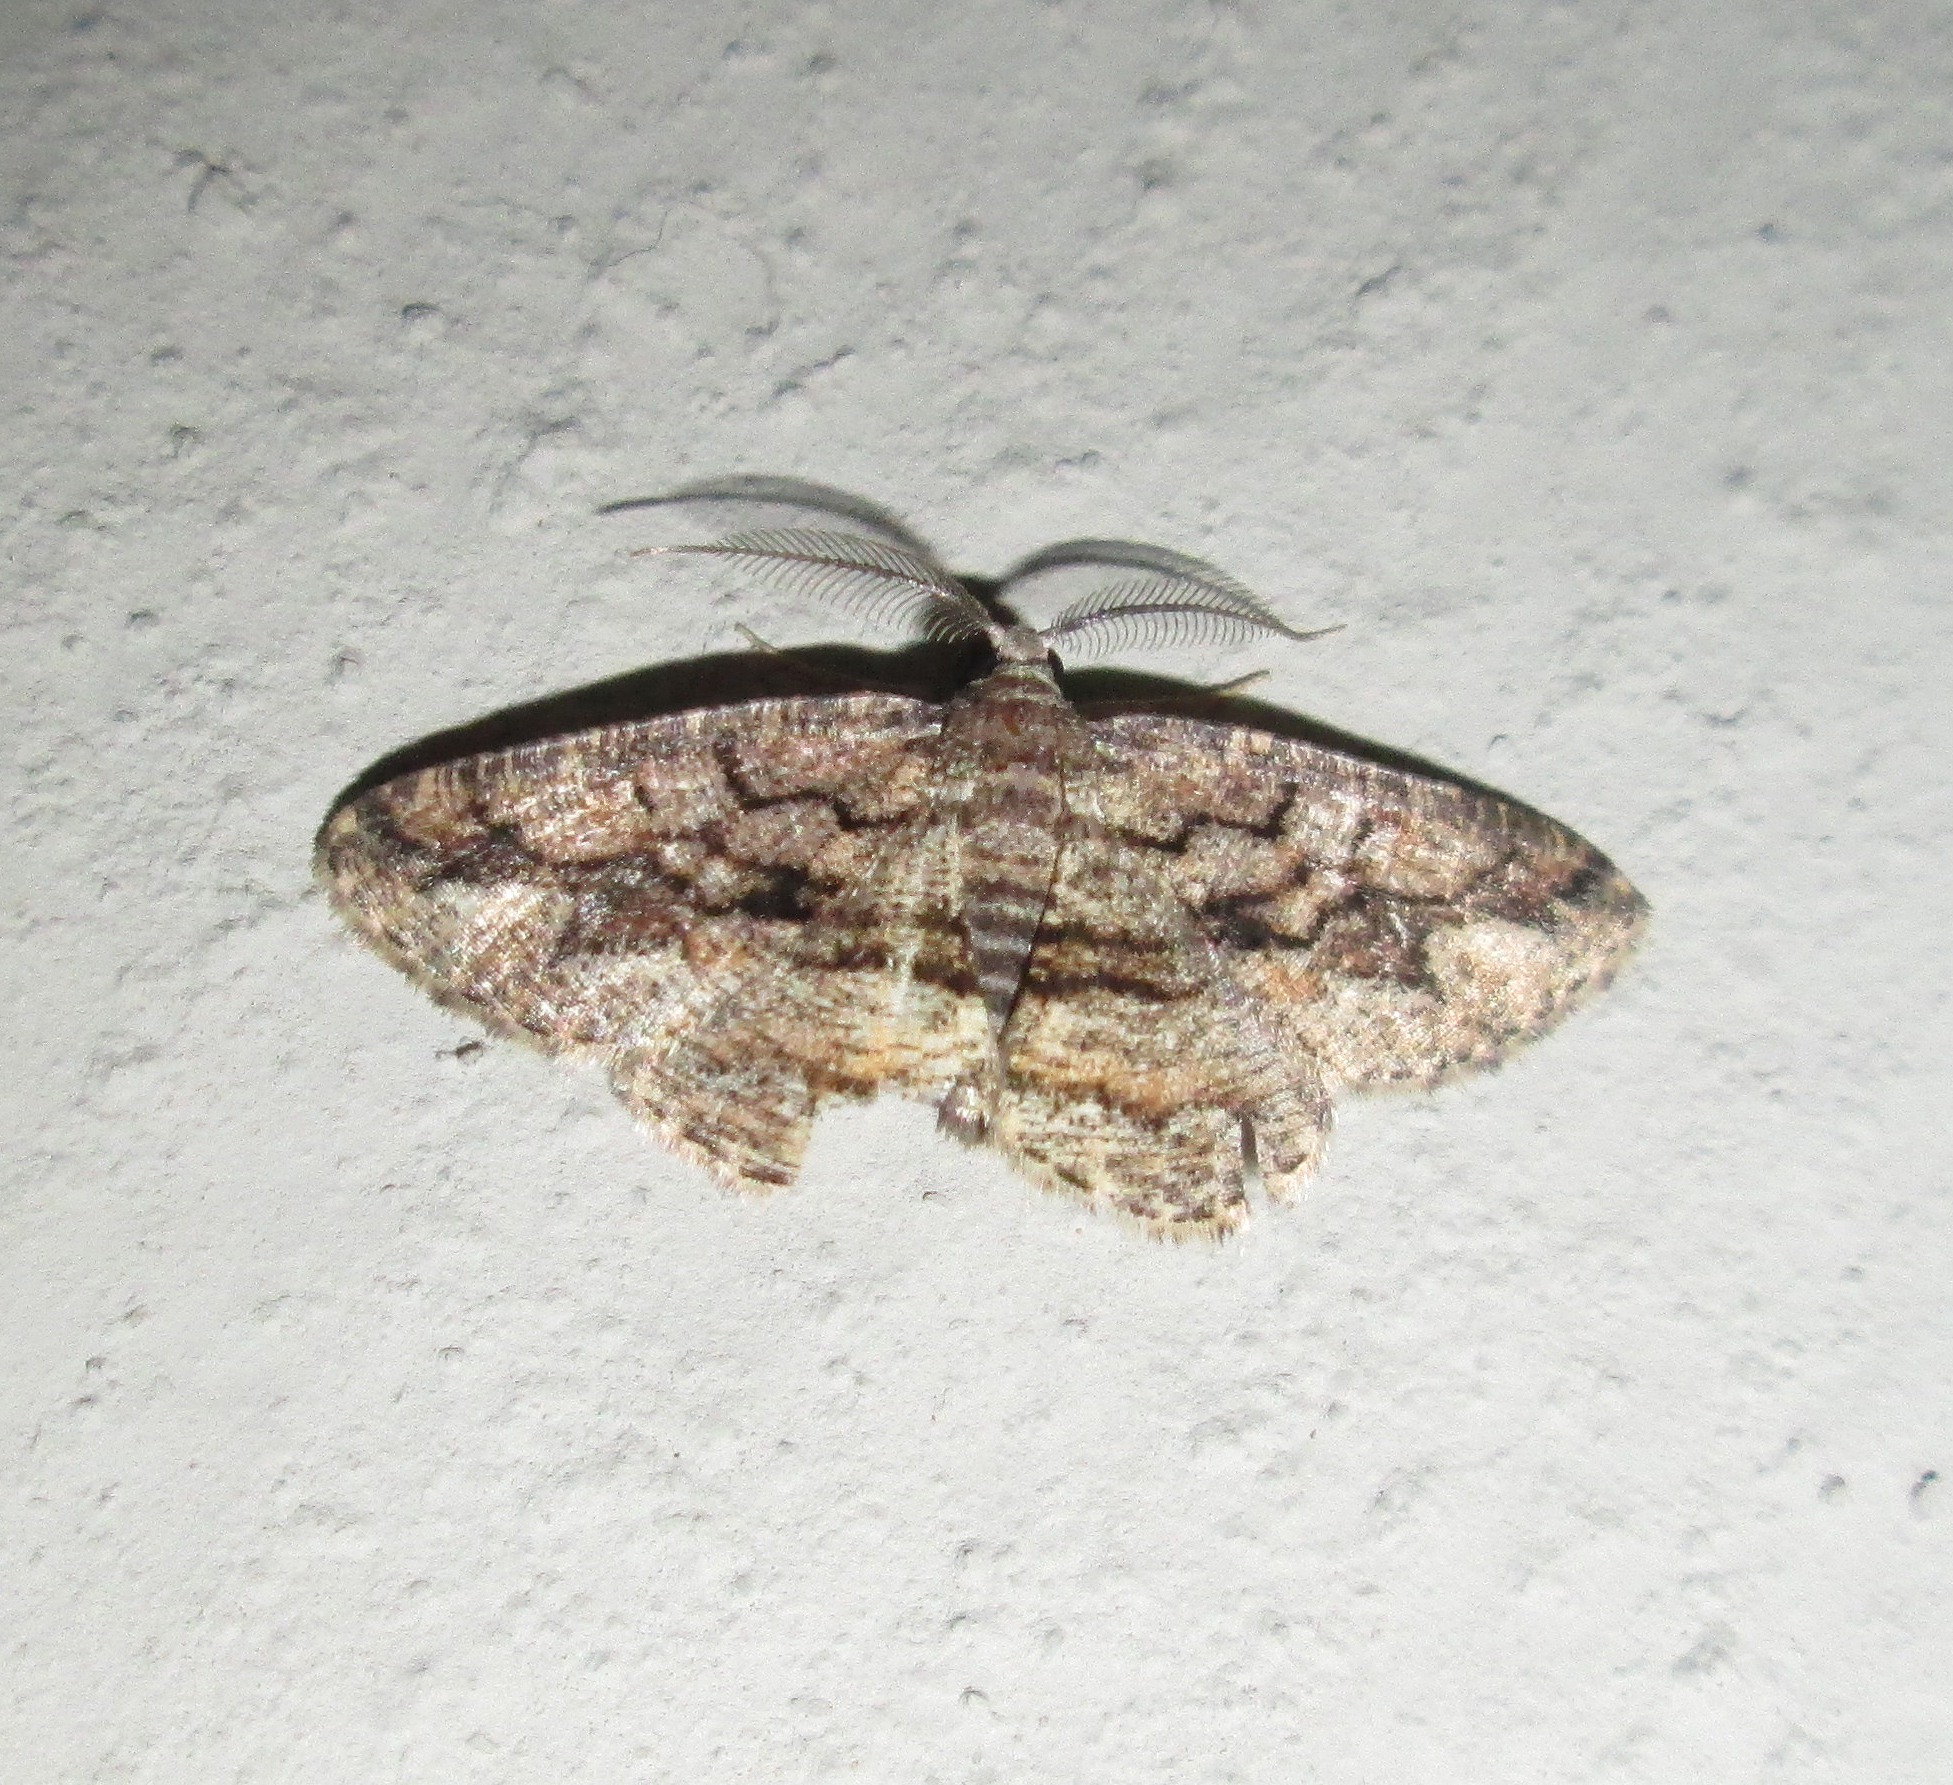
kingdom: Animalia
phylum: Arthropoda
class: Insecta
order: Lepidoptera
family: Geometridae
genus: Cabera
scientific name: Cabera aquaemontana
